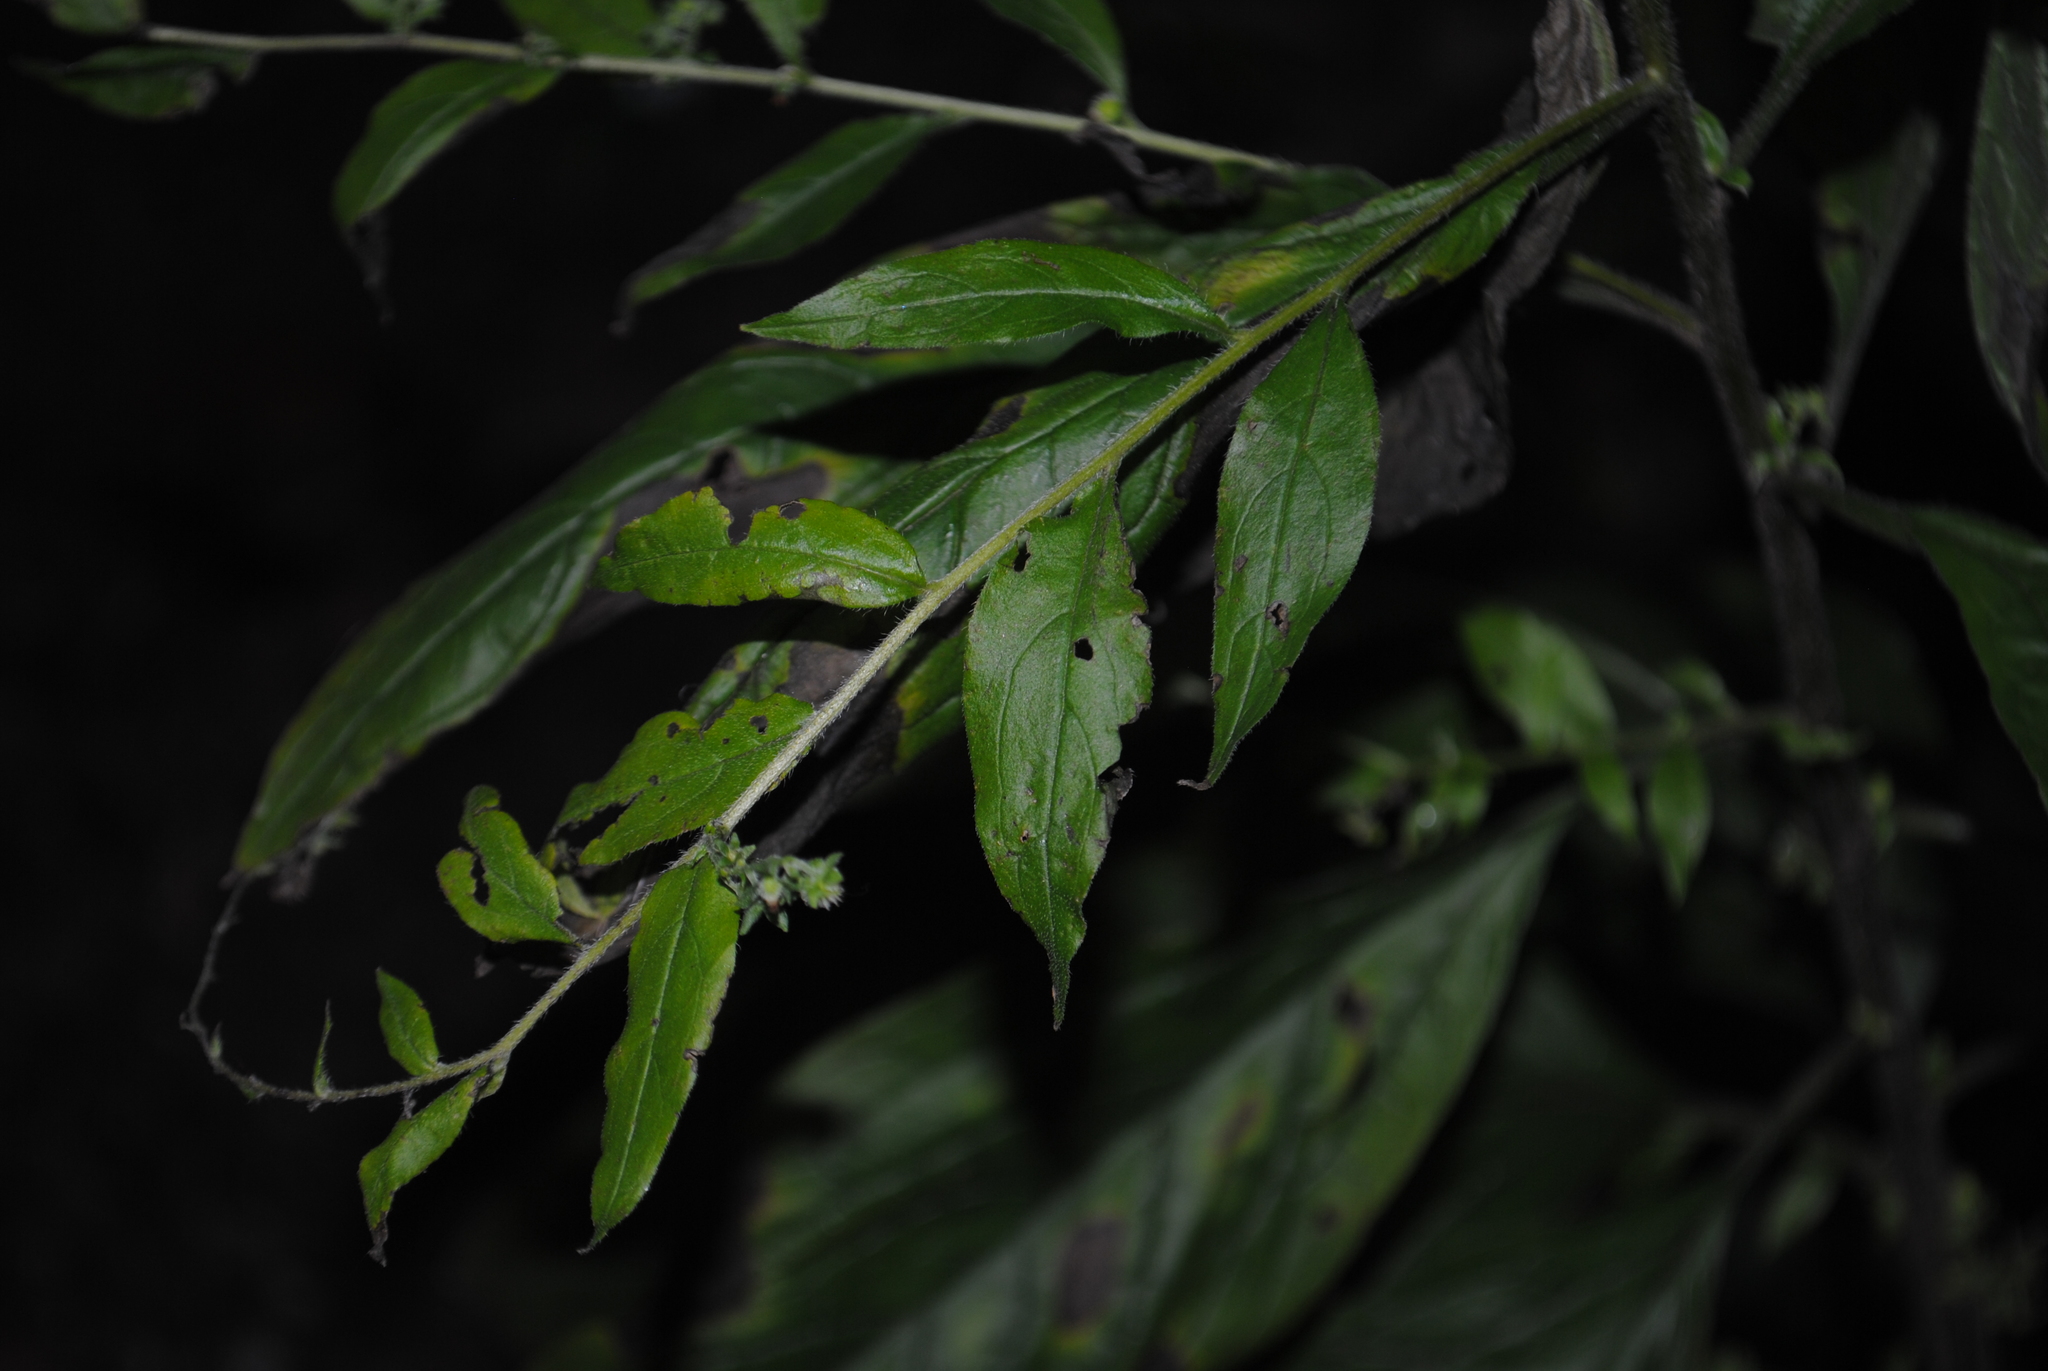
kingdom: Plantae
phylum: Tracheophyta
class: Magnoliopsida
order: Boraginales
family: Boraginaceae
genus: Hackelia
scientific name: Hackelia virginiana
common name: Beggar's-lice
